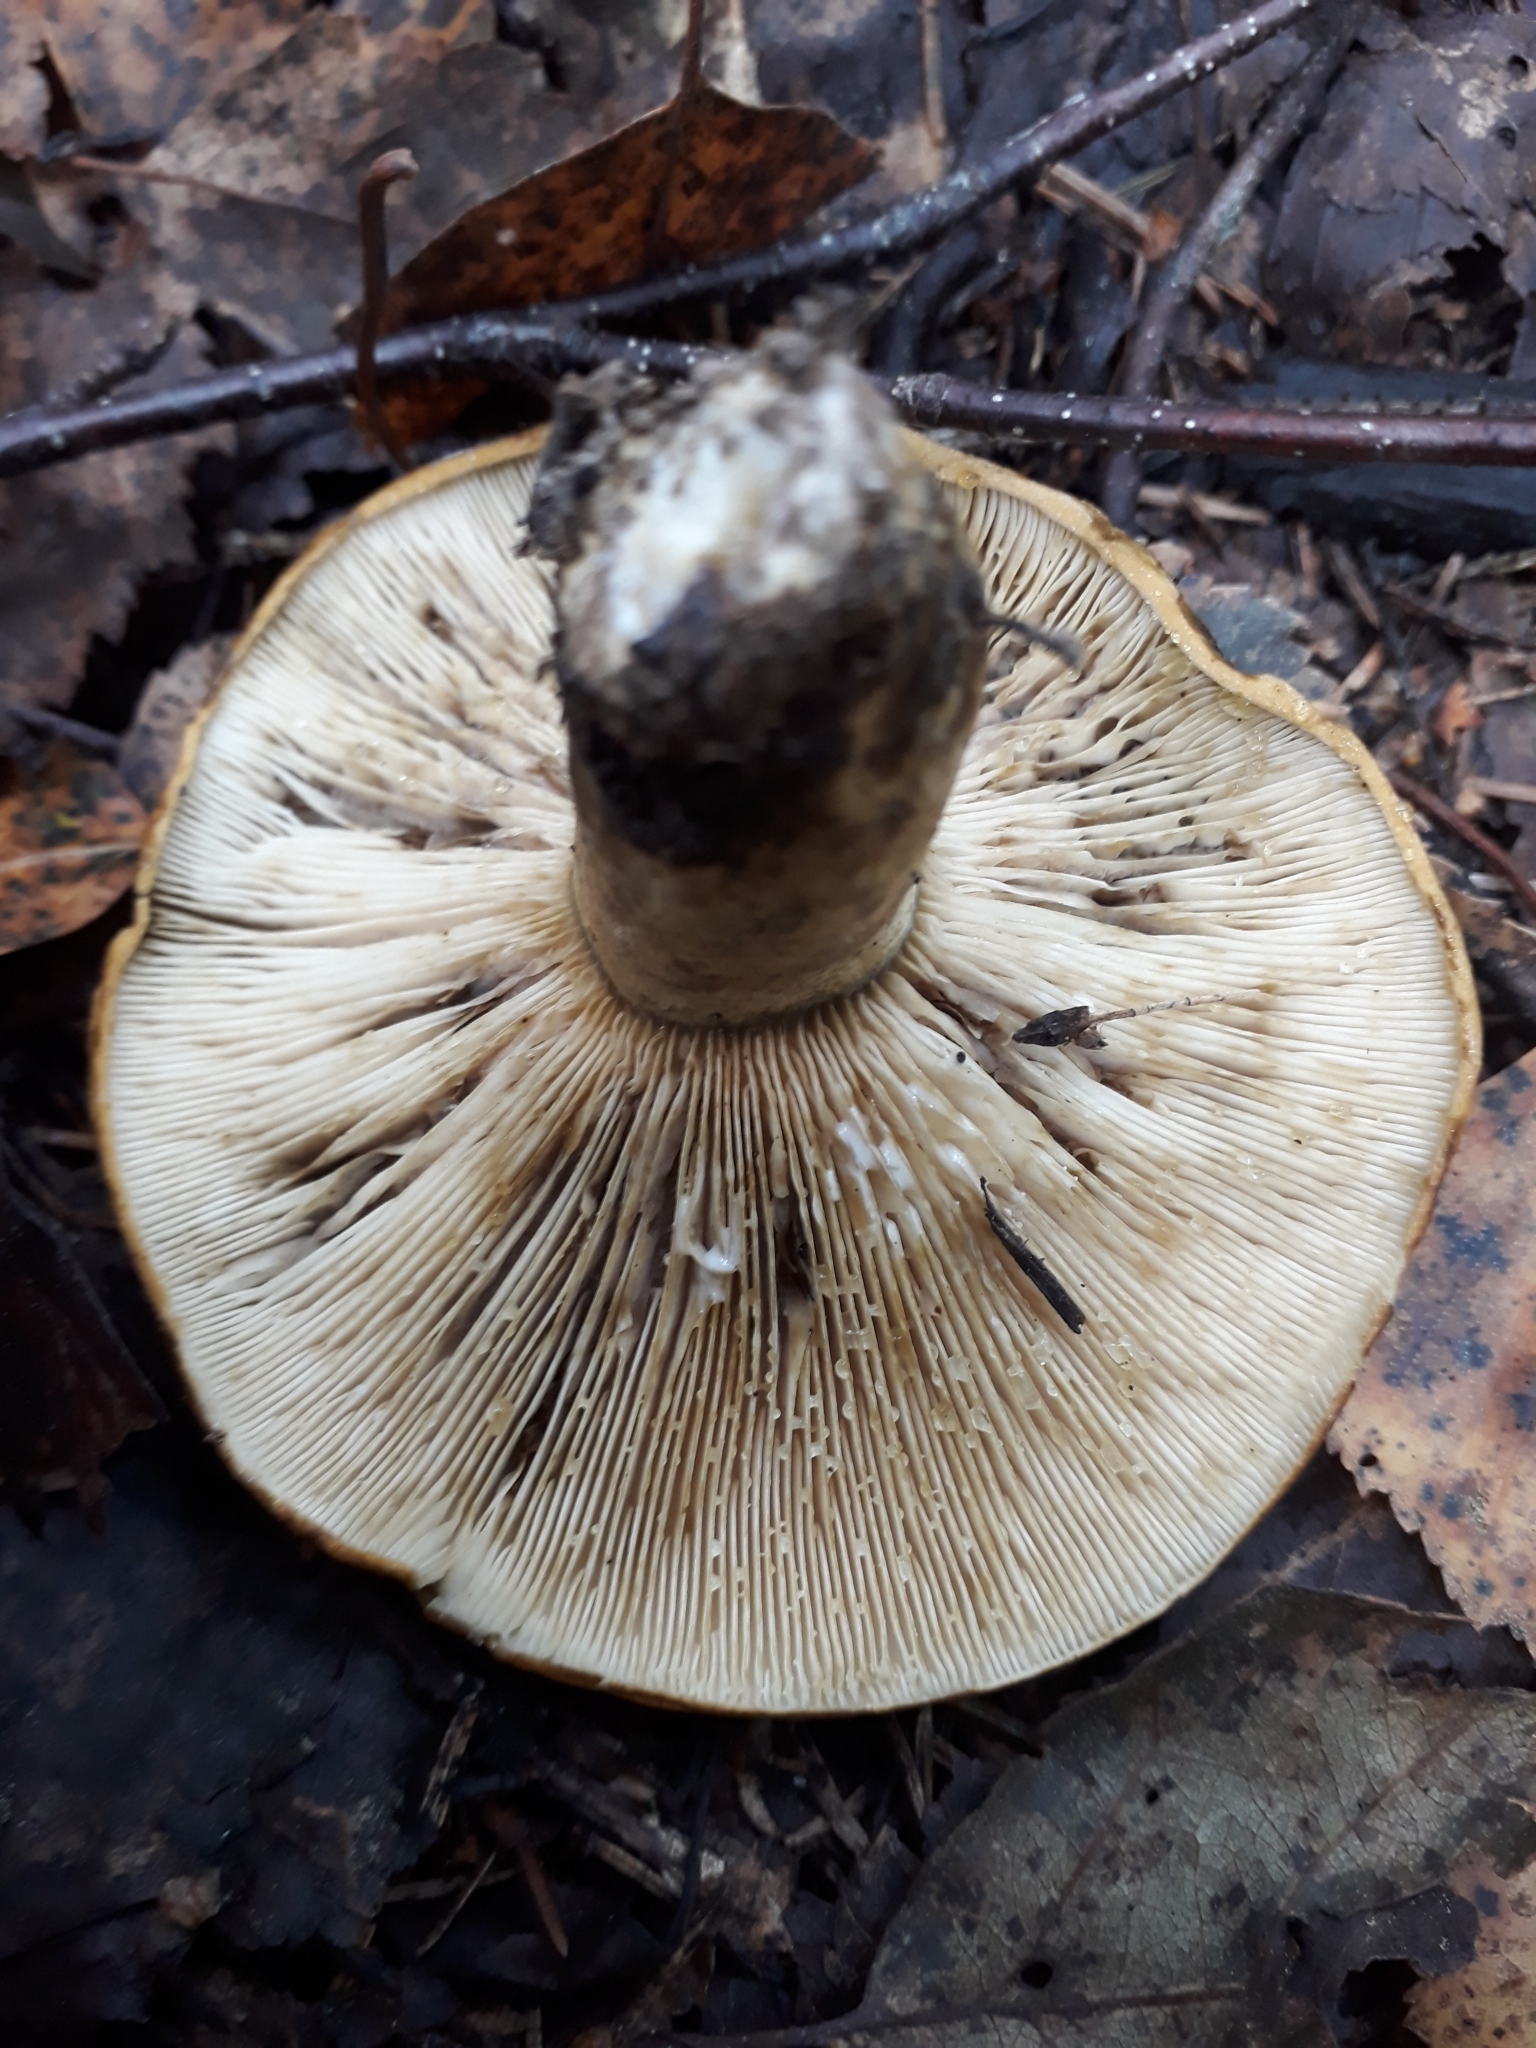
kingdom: Fungi
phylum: Basidiomycota
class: Agaricomycetes
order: Russulales
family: Russulaceae
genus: Lactarius
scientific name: Lactarius turpis
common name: Ugly milk-cap
